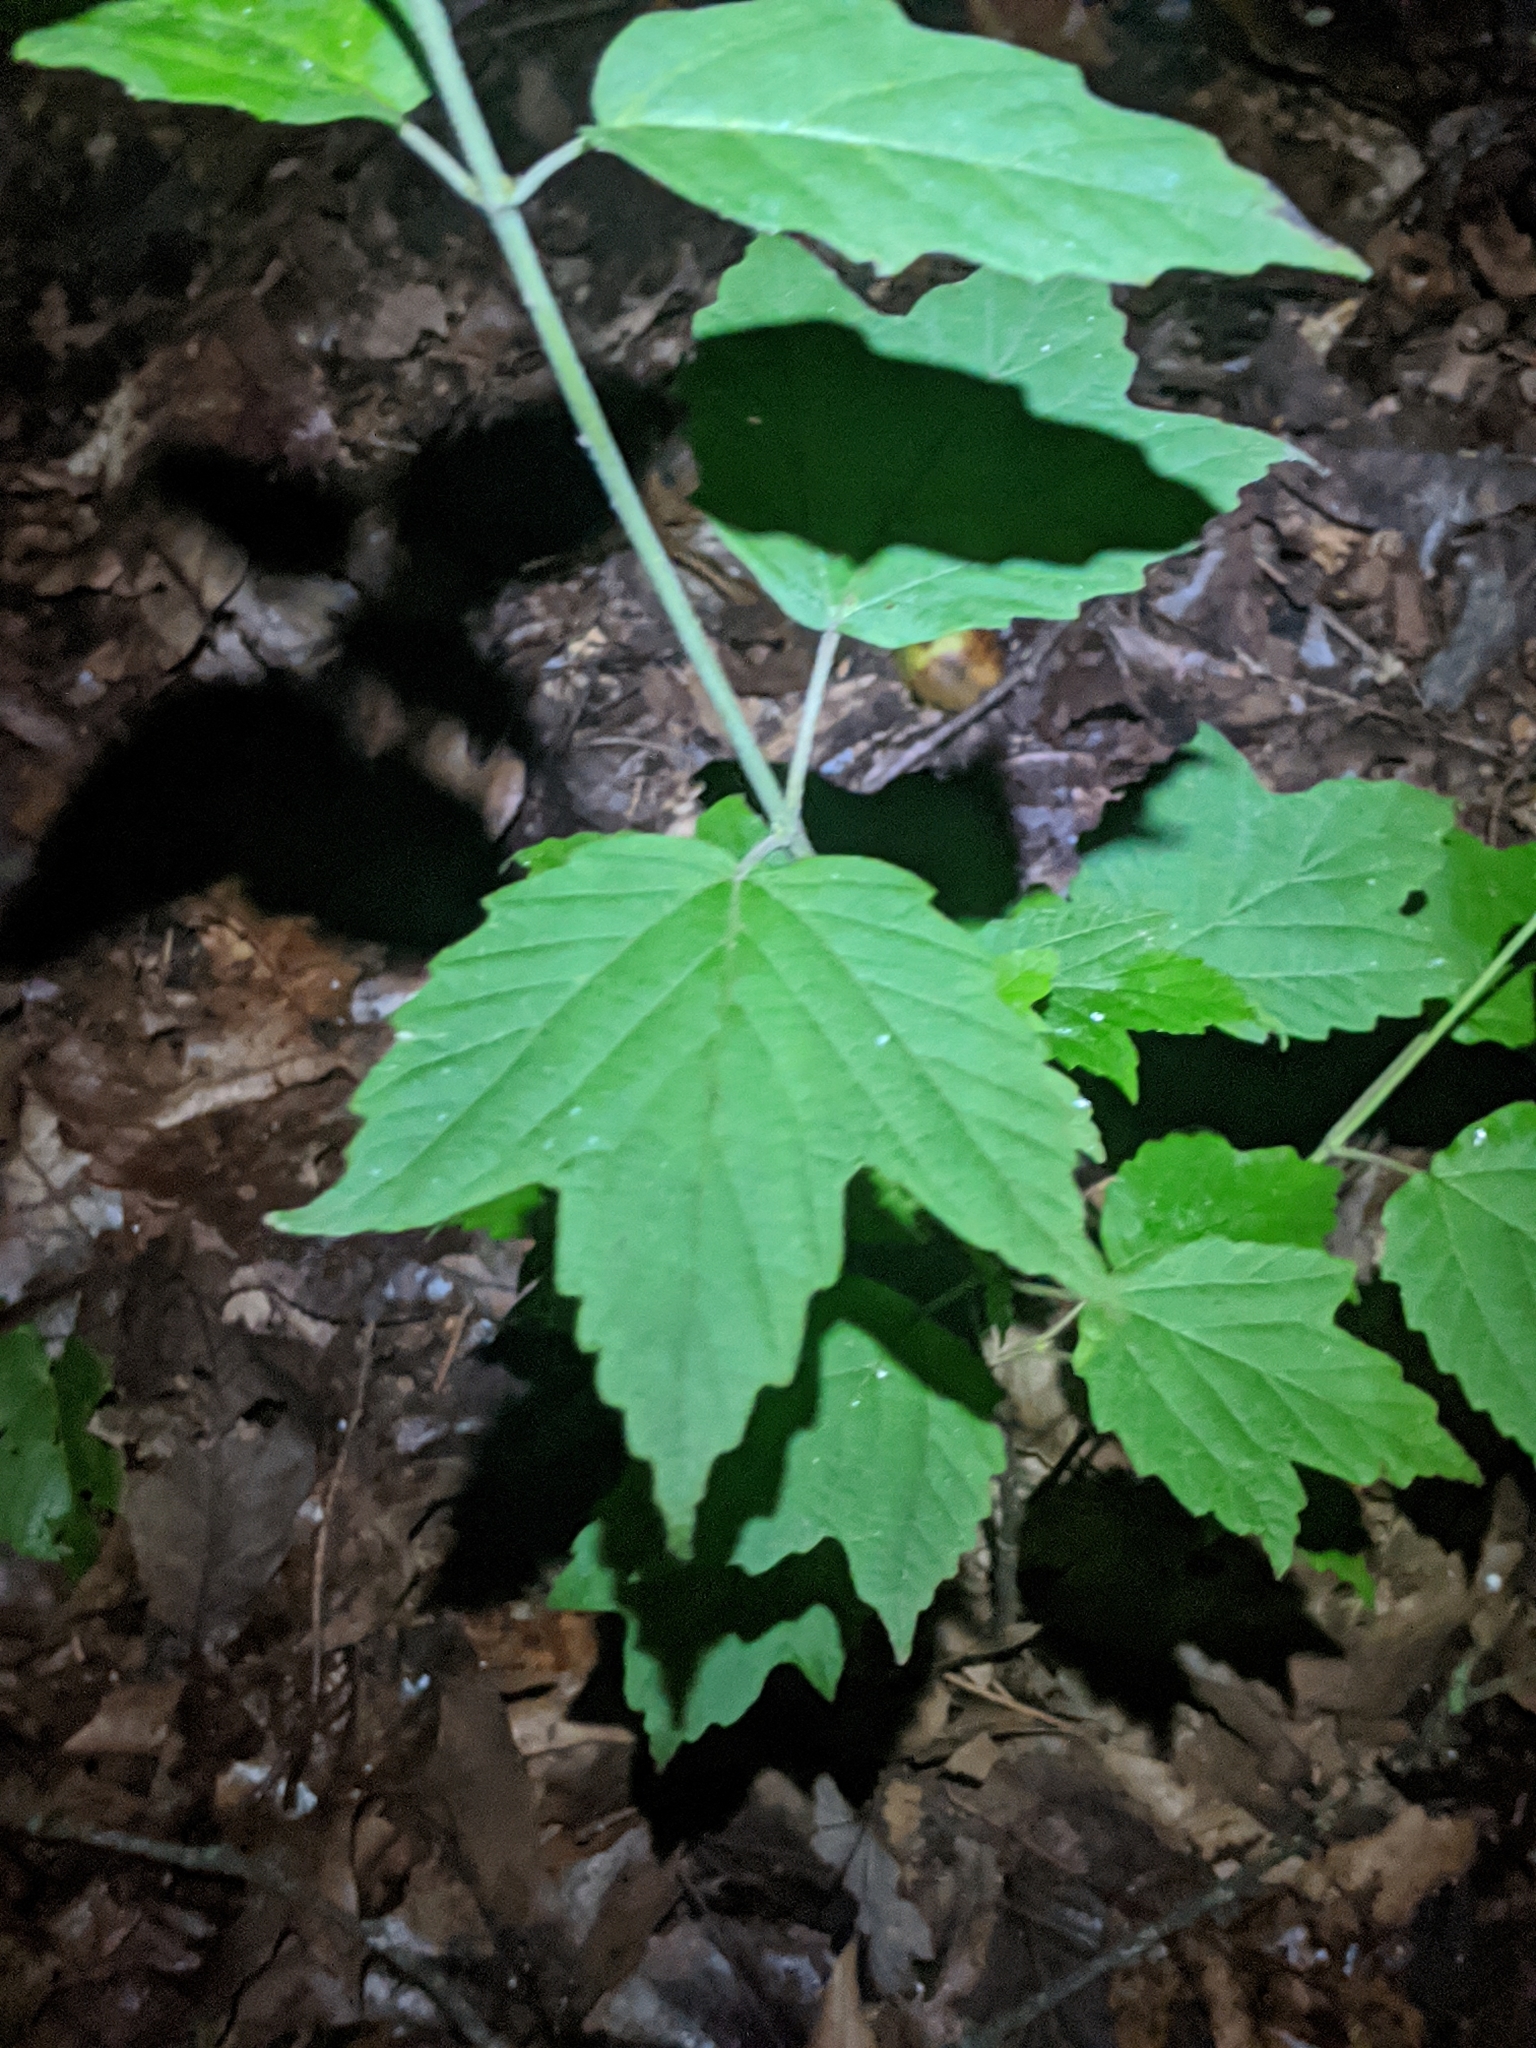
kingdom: Plantae
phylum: Tracheophyta
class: Magnoliopsida
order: Dipsacales
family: Viburnaceae
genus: Viburnum
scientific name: Viburnum acerifolium
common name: Dockmackie
